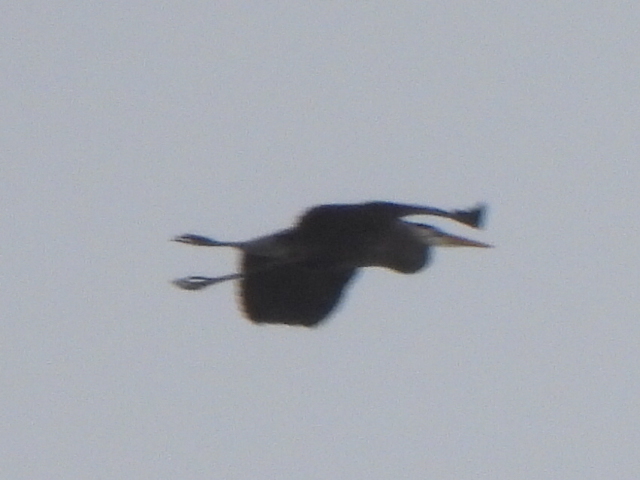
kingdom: Animalia
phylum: Chordata
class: Aves
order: Pelecaniformes
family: Ardeidae
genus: Ardea
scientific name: Ardea herodias
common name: Great blue heron
